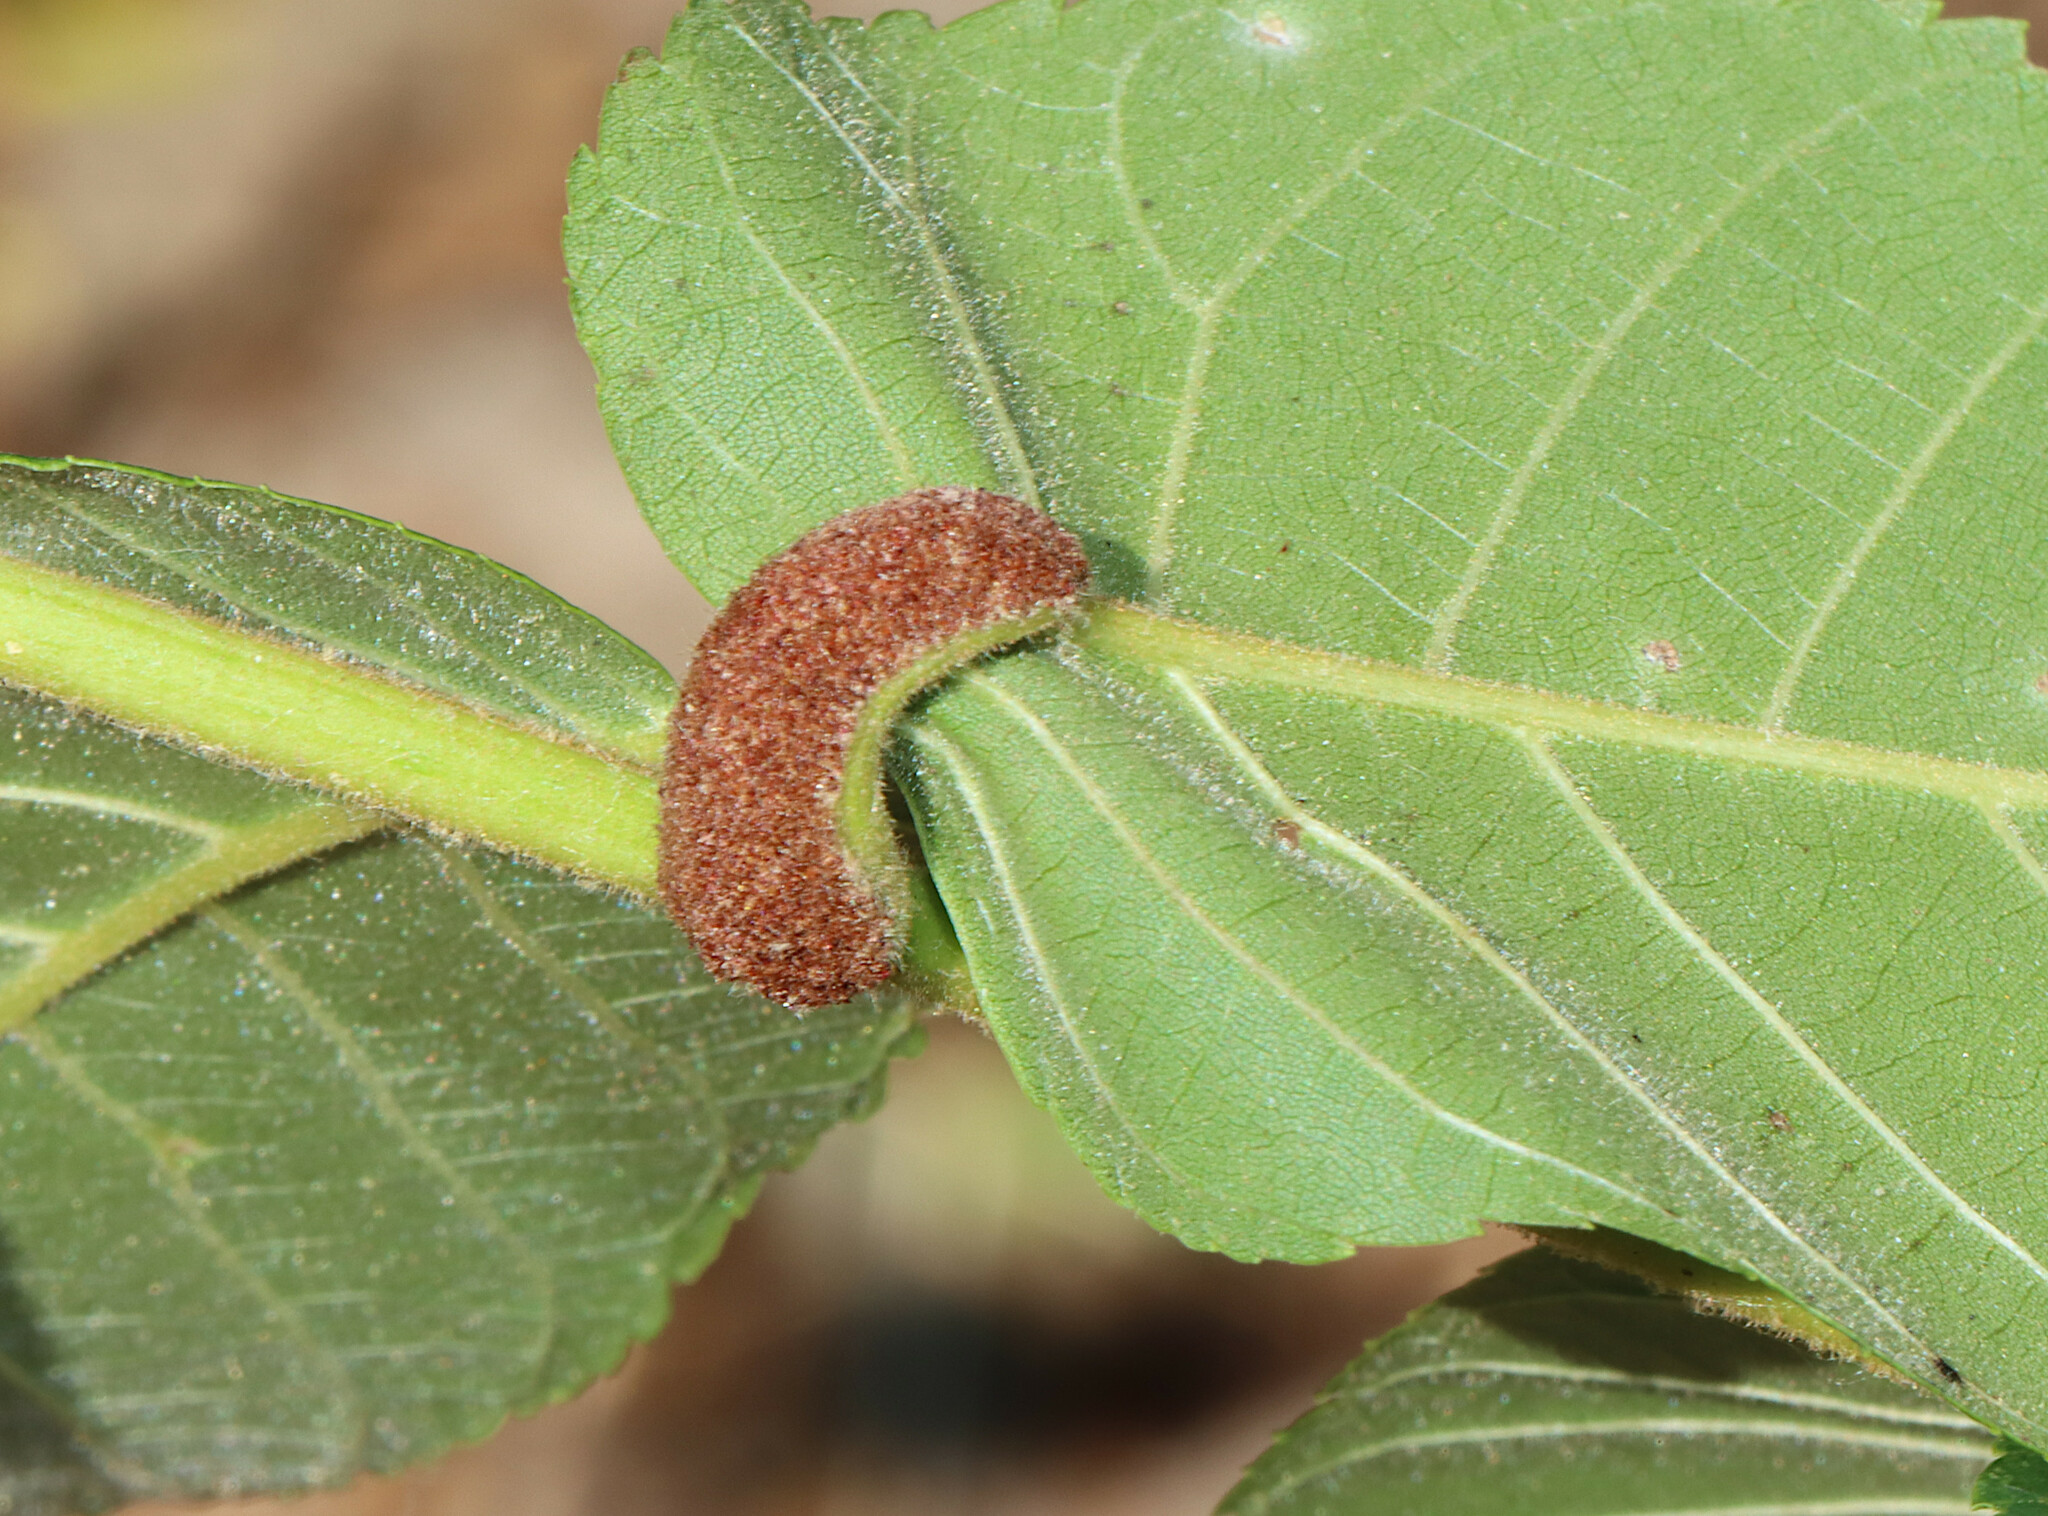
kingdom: Animalia
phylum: Arthropoda
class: Arachnida
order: Trombidiformes
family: Eriophyidae
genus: Aceria
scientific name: Aceria
